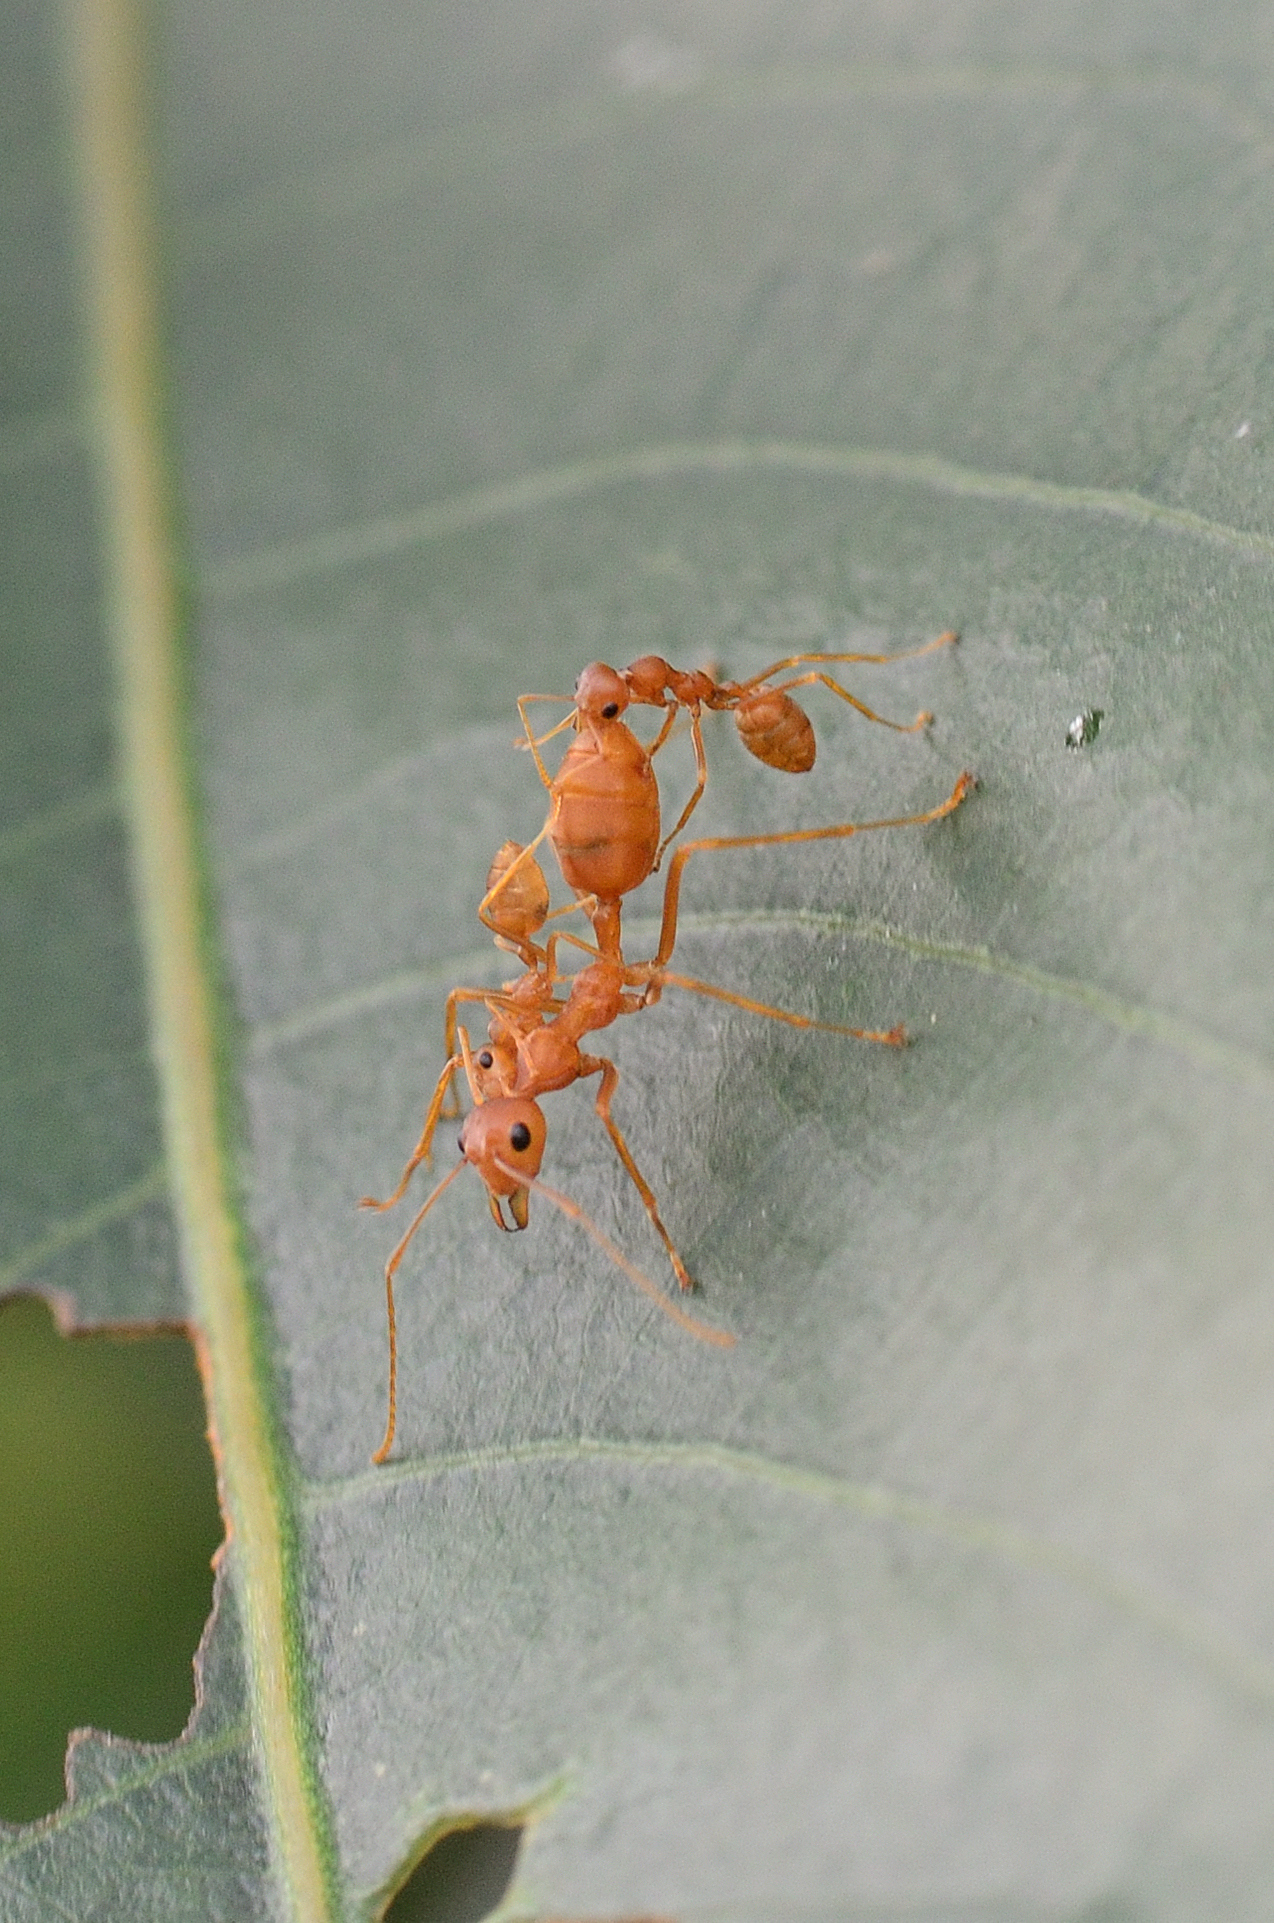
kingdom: Animalia
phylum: Arthropoda
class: Insecta
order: Hymenoptera
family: Formicidae
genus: Oecophylla
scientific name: Oecophylla smaragdina
